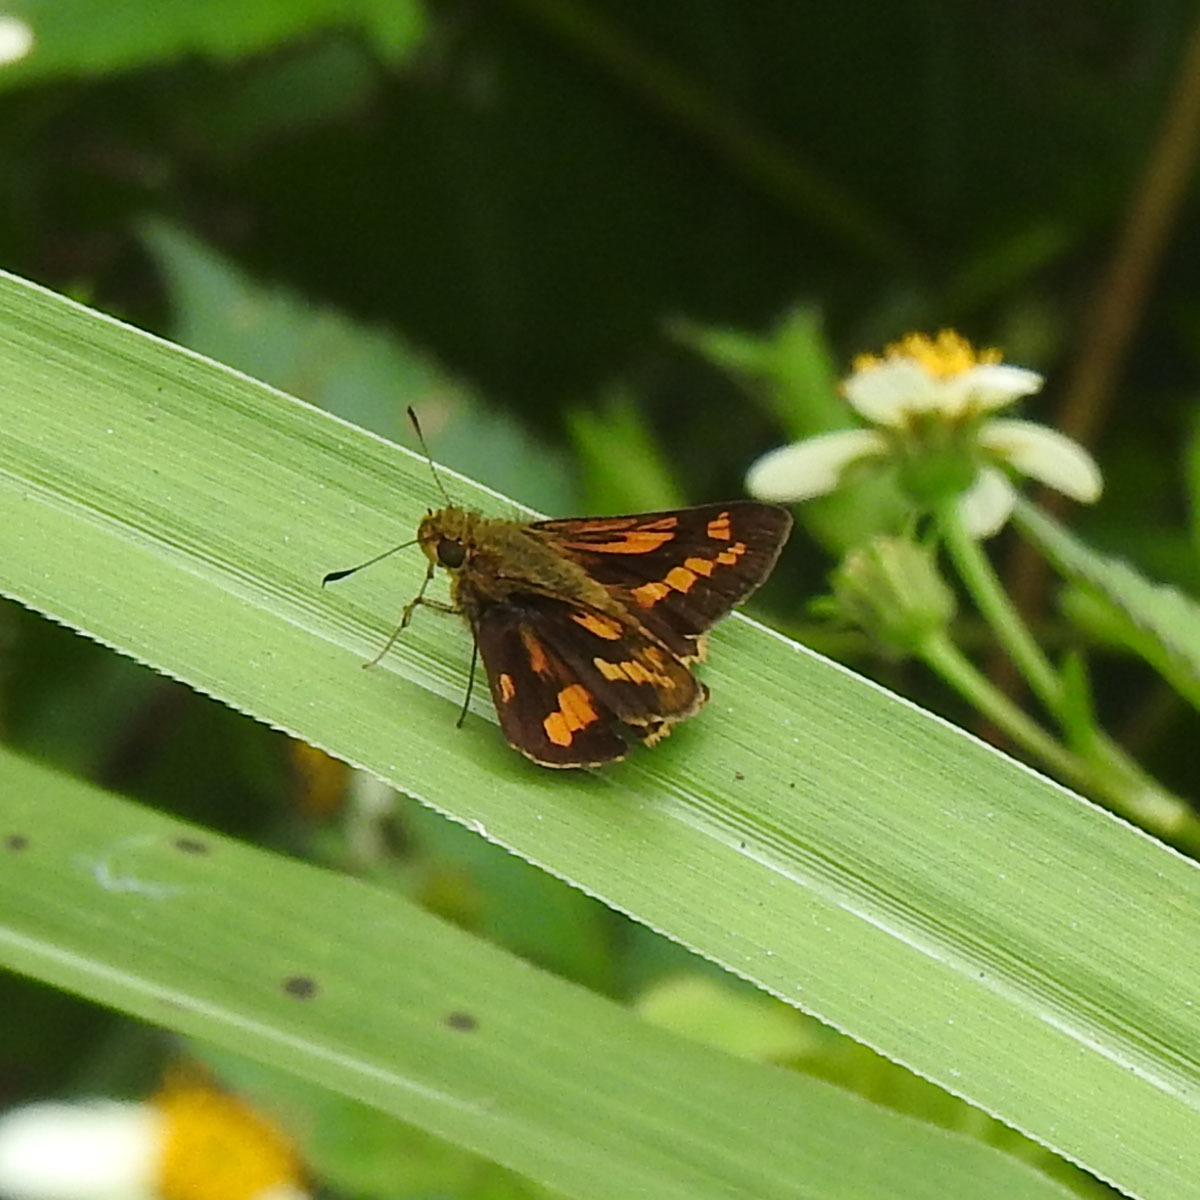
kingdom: Animalia
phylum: Arthropoda
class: Insecta
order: Lepidoptera
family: Hesperiidae
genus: Potanthus
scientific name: Potanthus palnia
